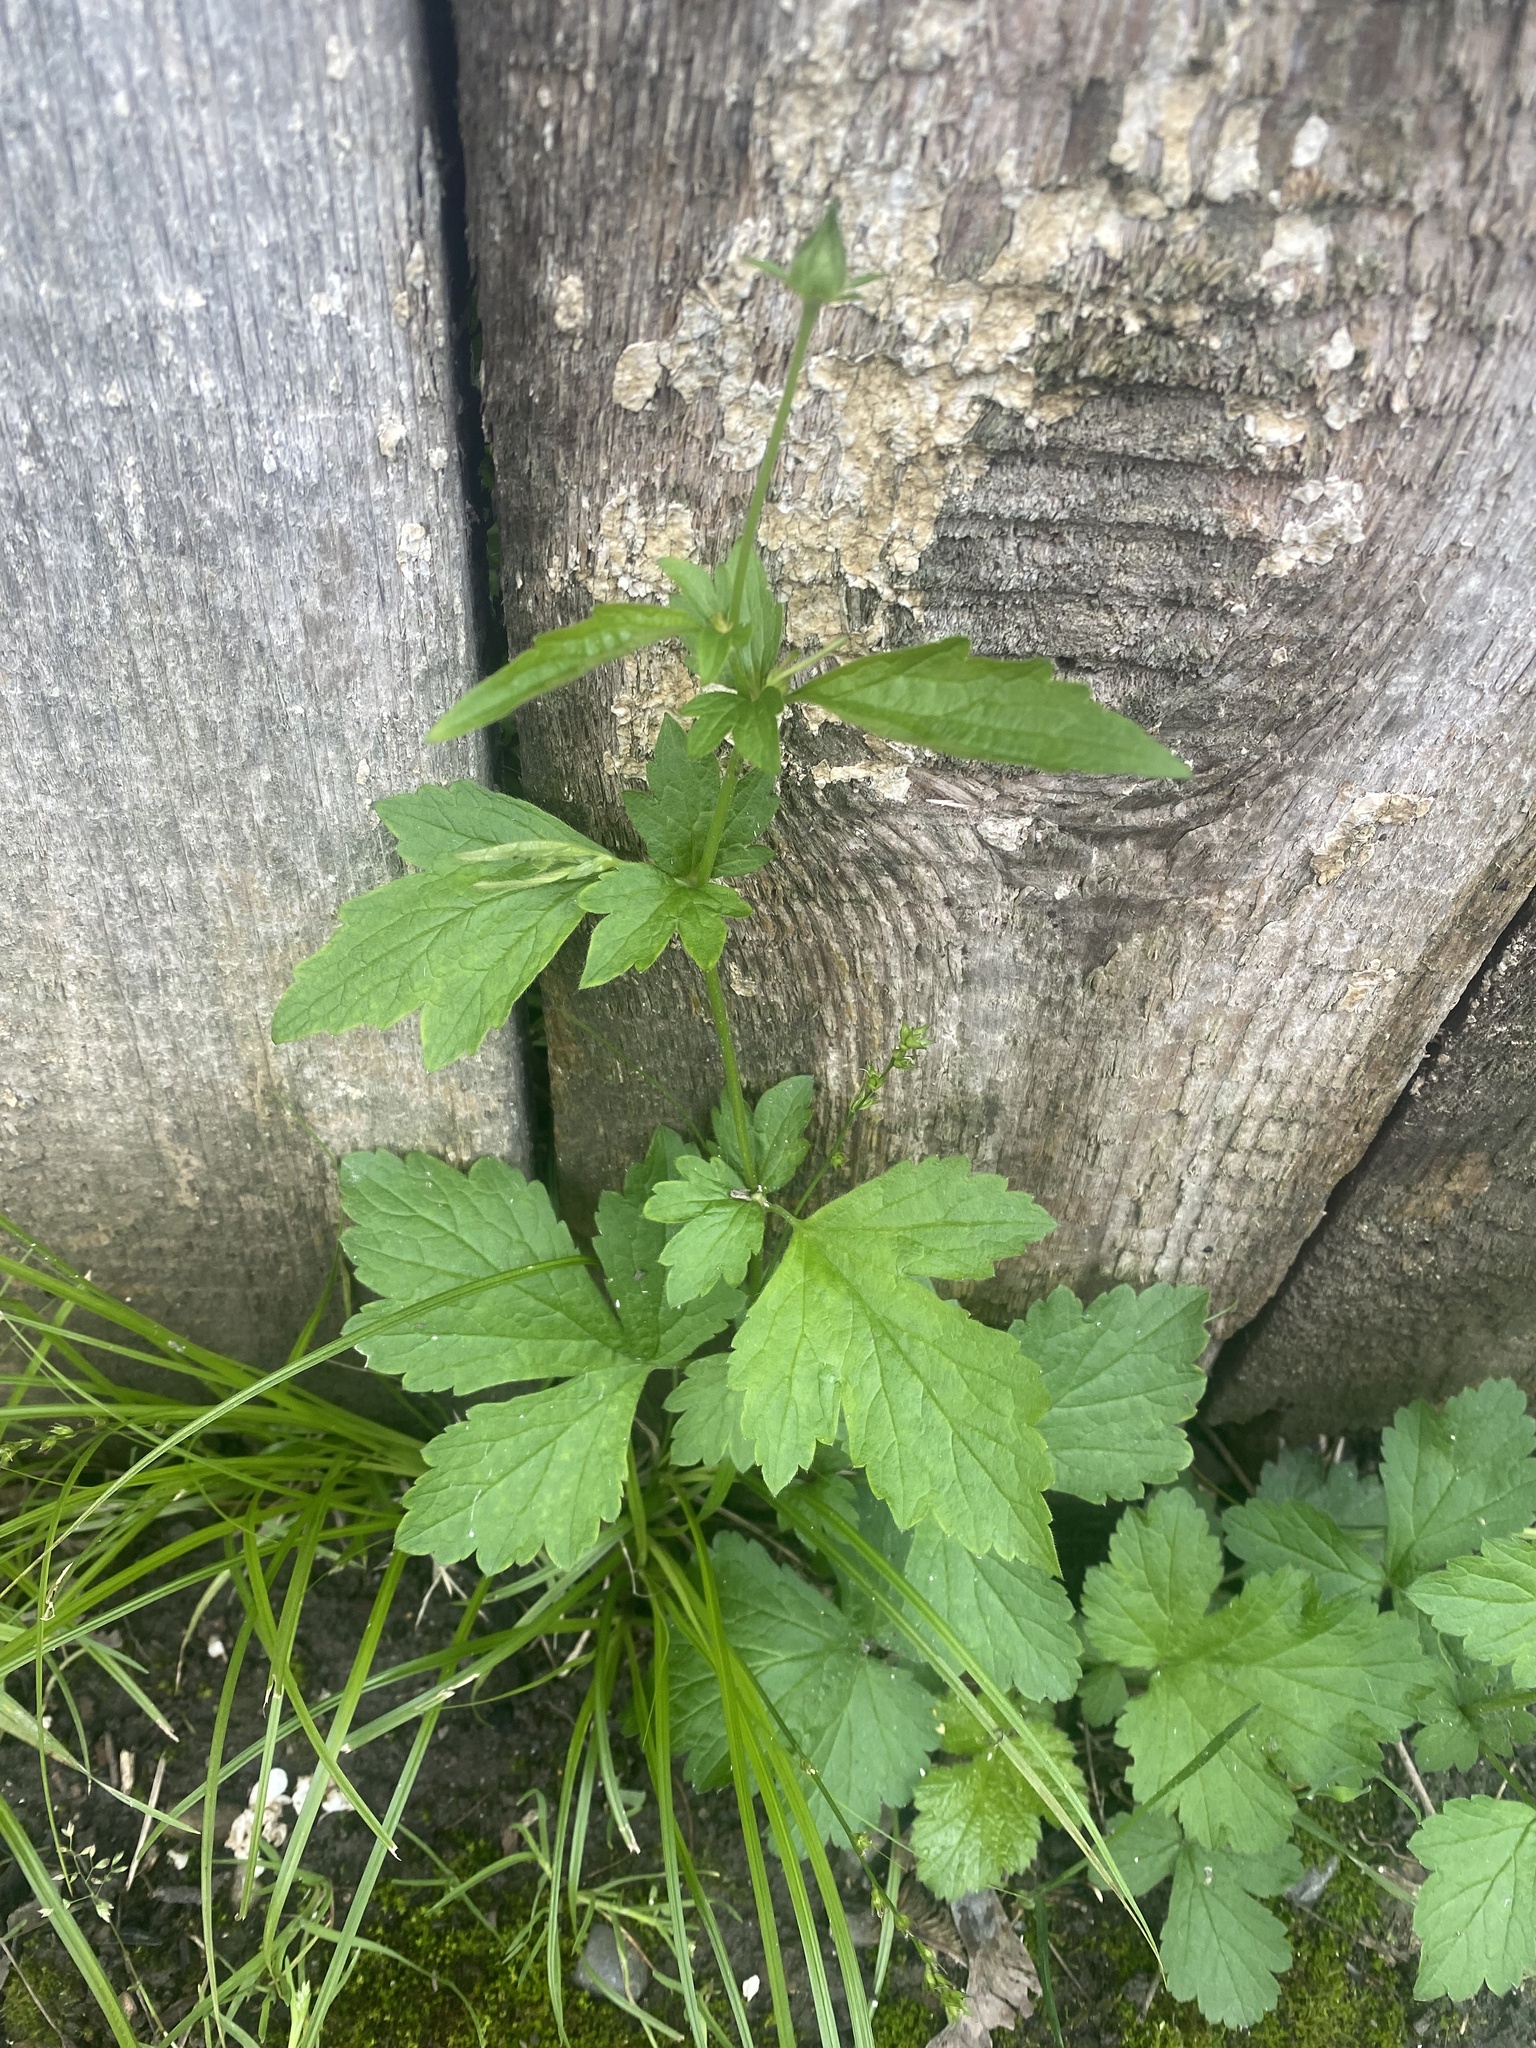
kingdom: Plantae
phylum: Tracheophyta
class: Magnoliopsida
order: Rosales
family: Rosaceae
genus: Geum
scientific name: Geum urbanum
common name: Wood avens
